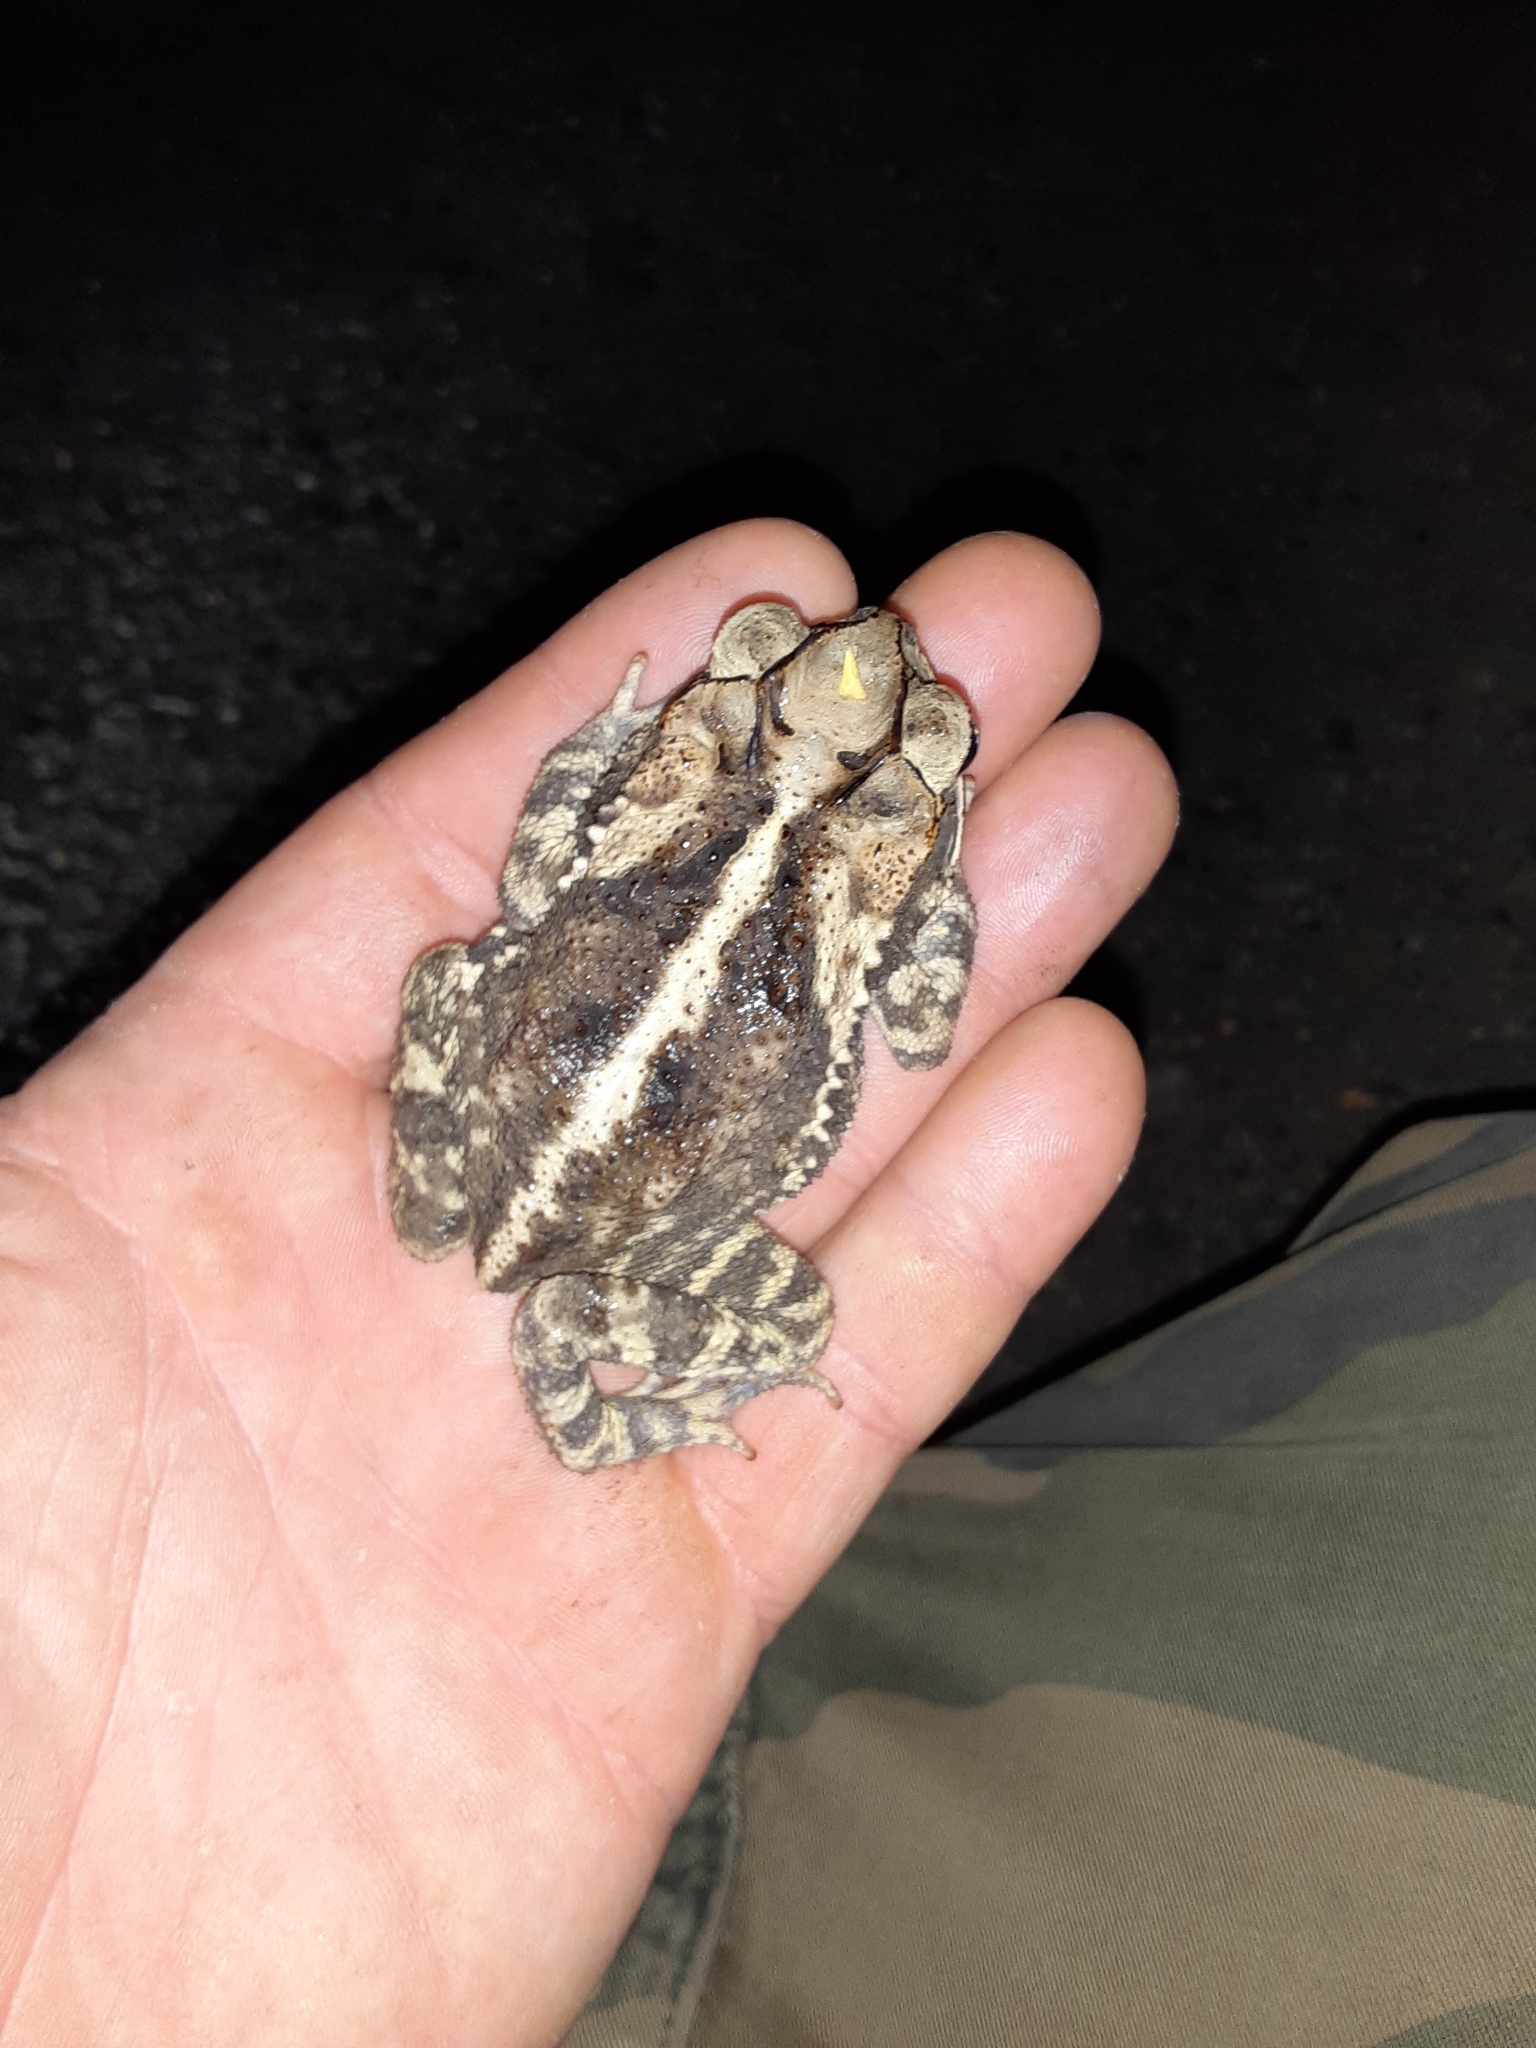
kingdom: Animalia
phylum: Chordata
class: Amphibia
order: Anura
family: Bufonidae
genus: Incilius
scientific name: Incilius nebulifer
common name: Gulf coast toad
